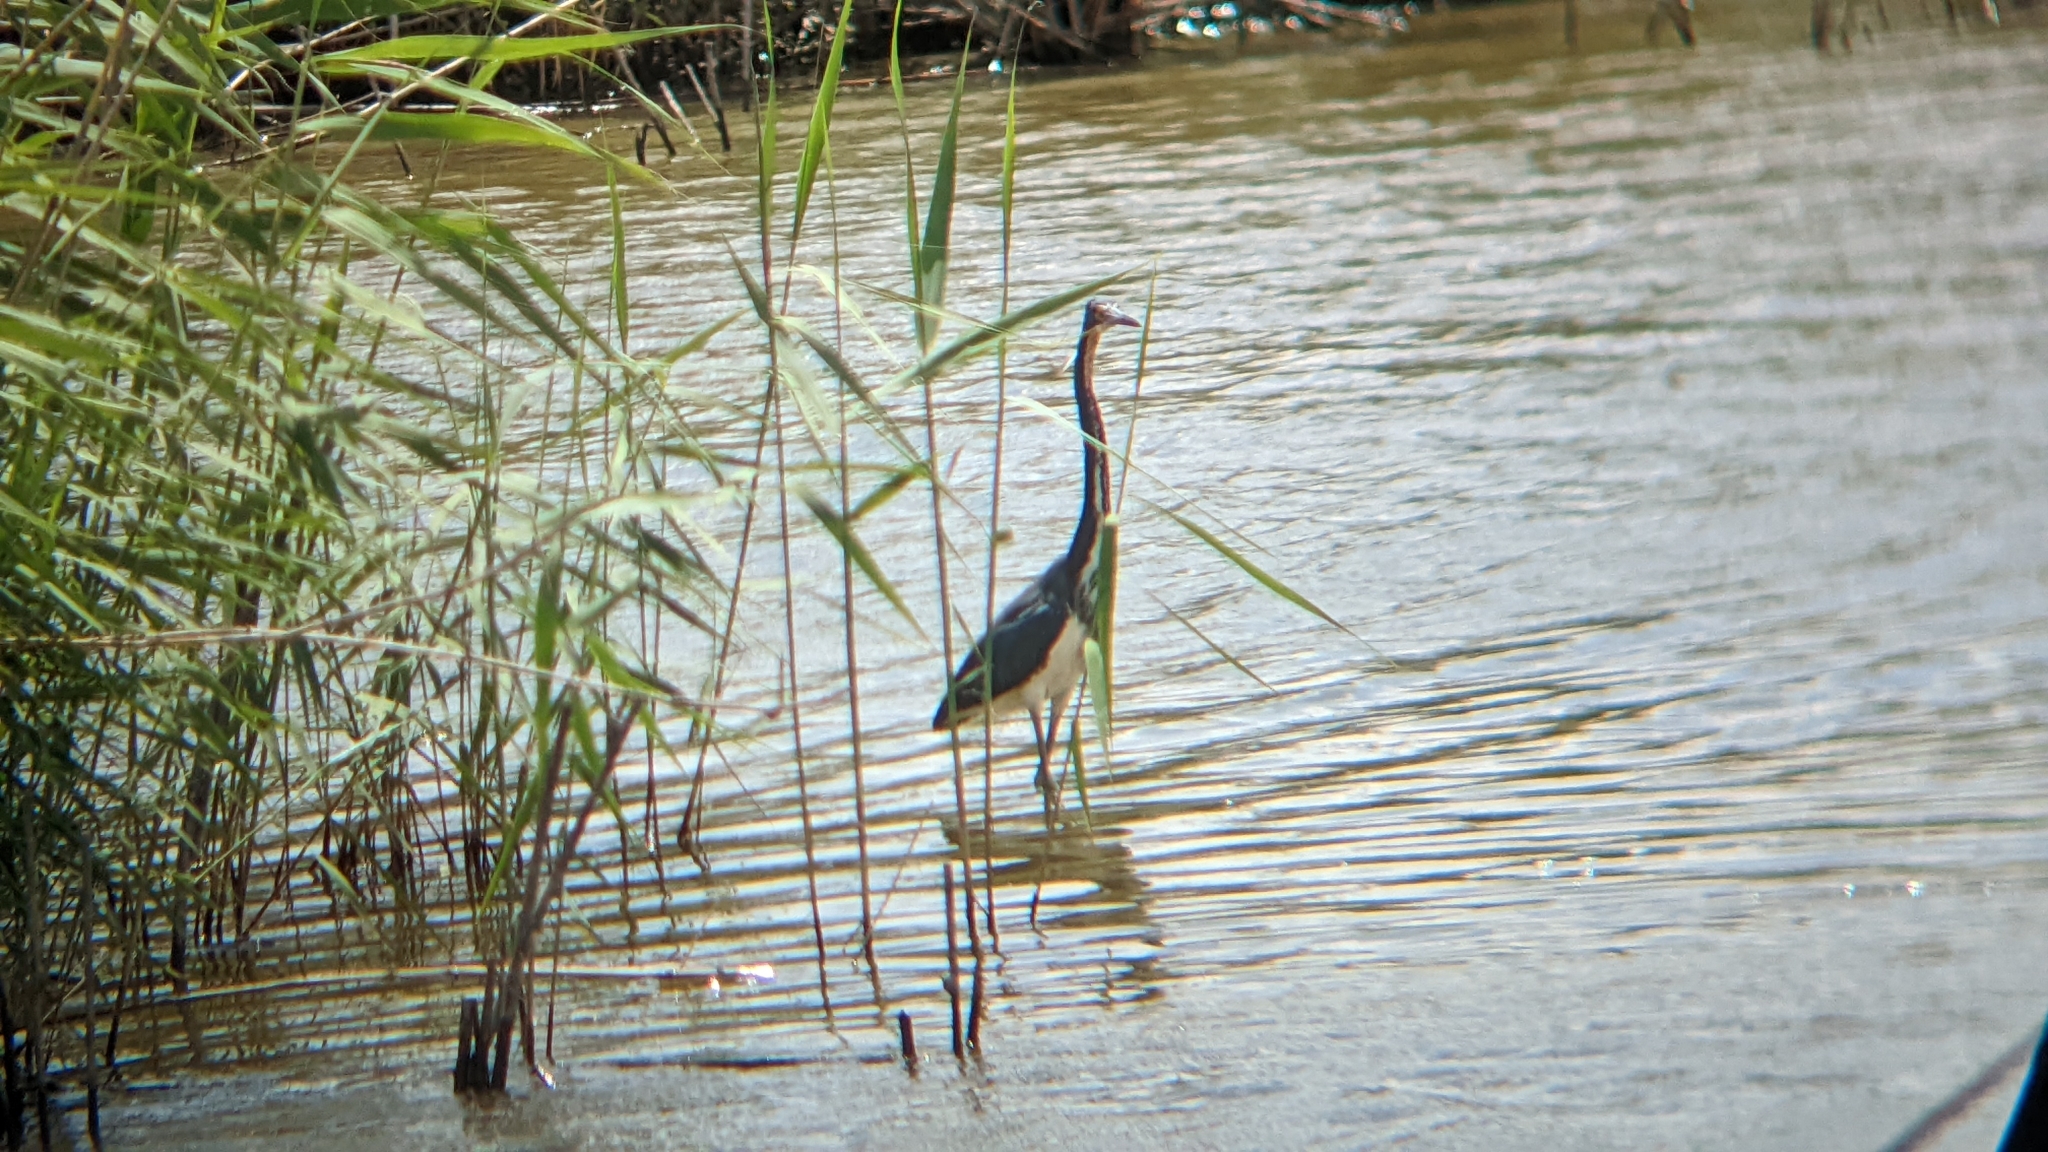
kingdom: Animalia
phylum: Chordata
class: Aves
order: Pelecaniformes
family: Ardeidae
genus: Egretta
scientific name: Egretta tricolor
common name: Tricolored heron
